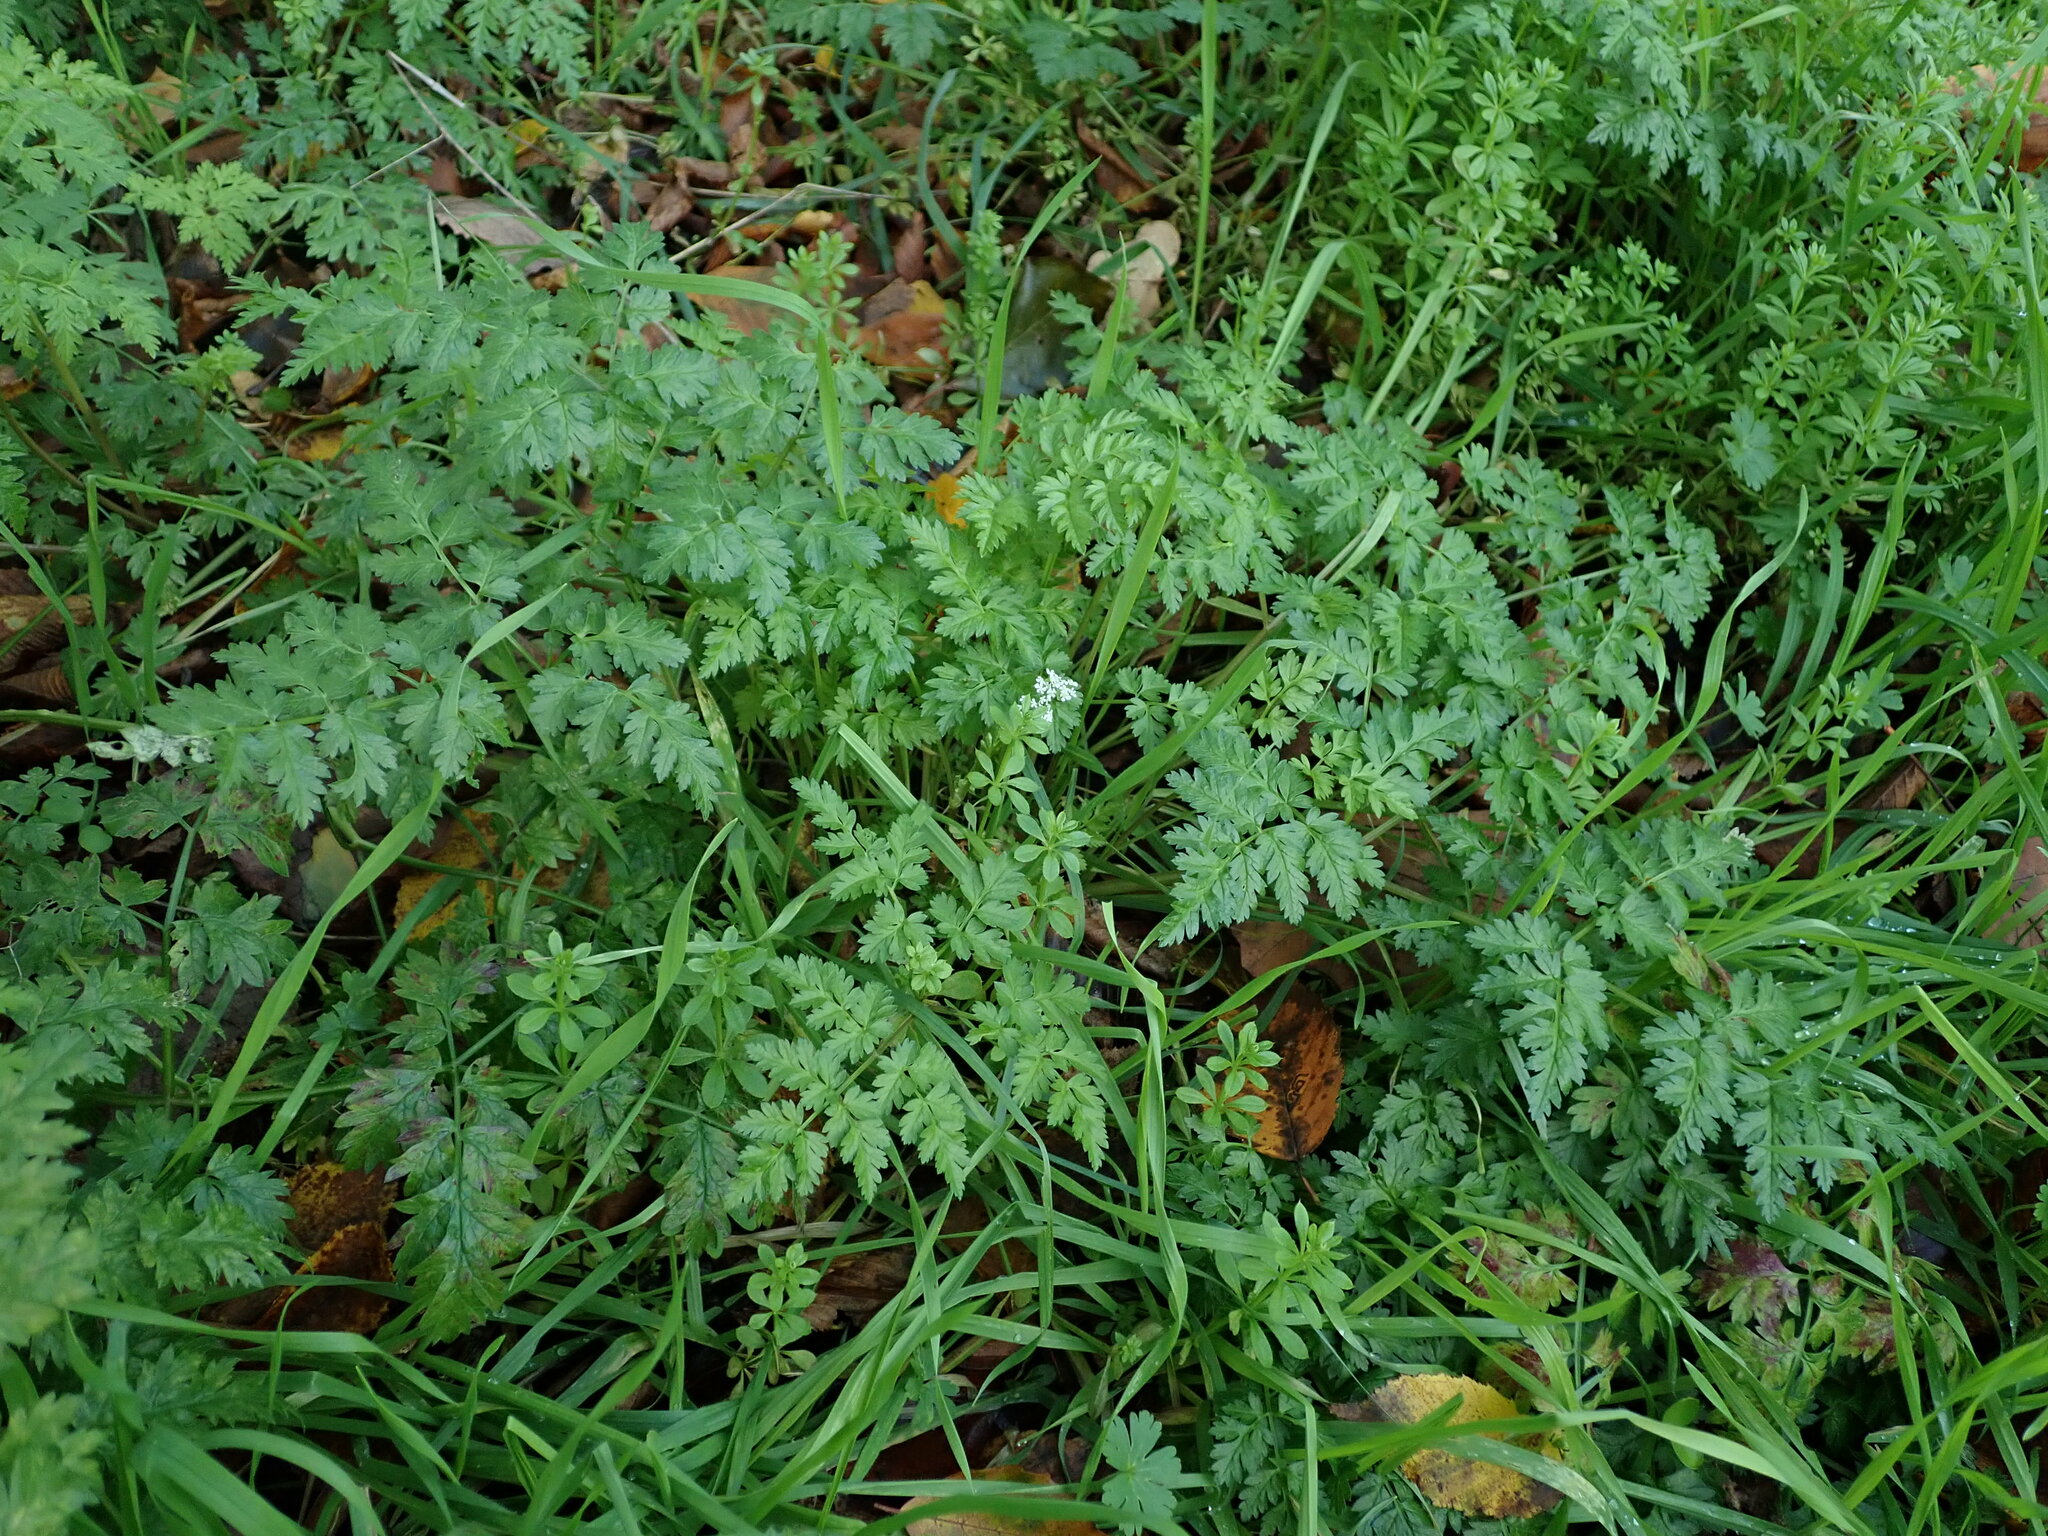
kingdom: Plantae
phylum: Tracheophyta
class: Magnoliopsida
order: Apiales
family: Apiaceae
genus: Anthriscus
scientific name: Anthriscus sylvestris
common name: Cow parsley
